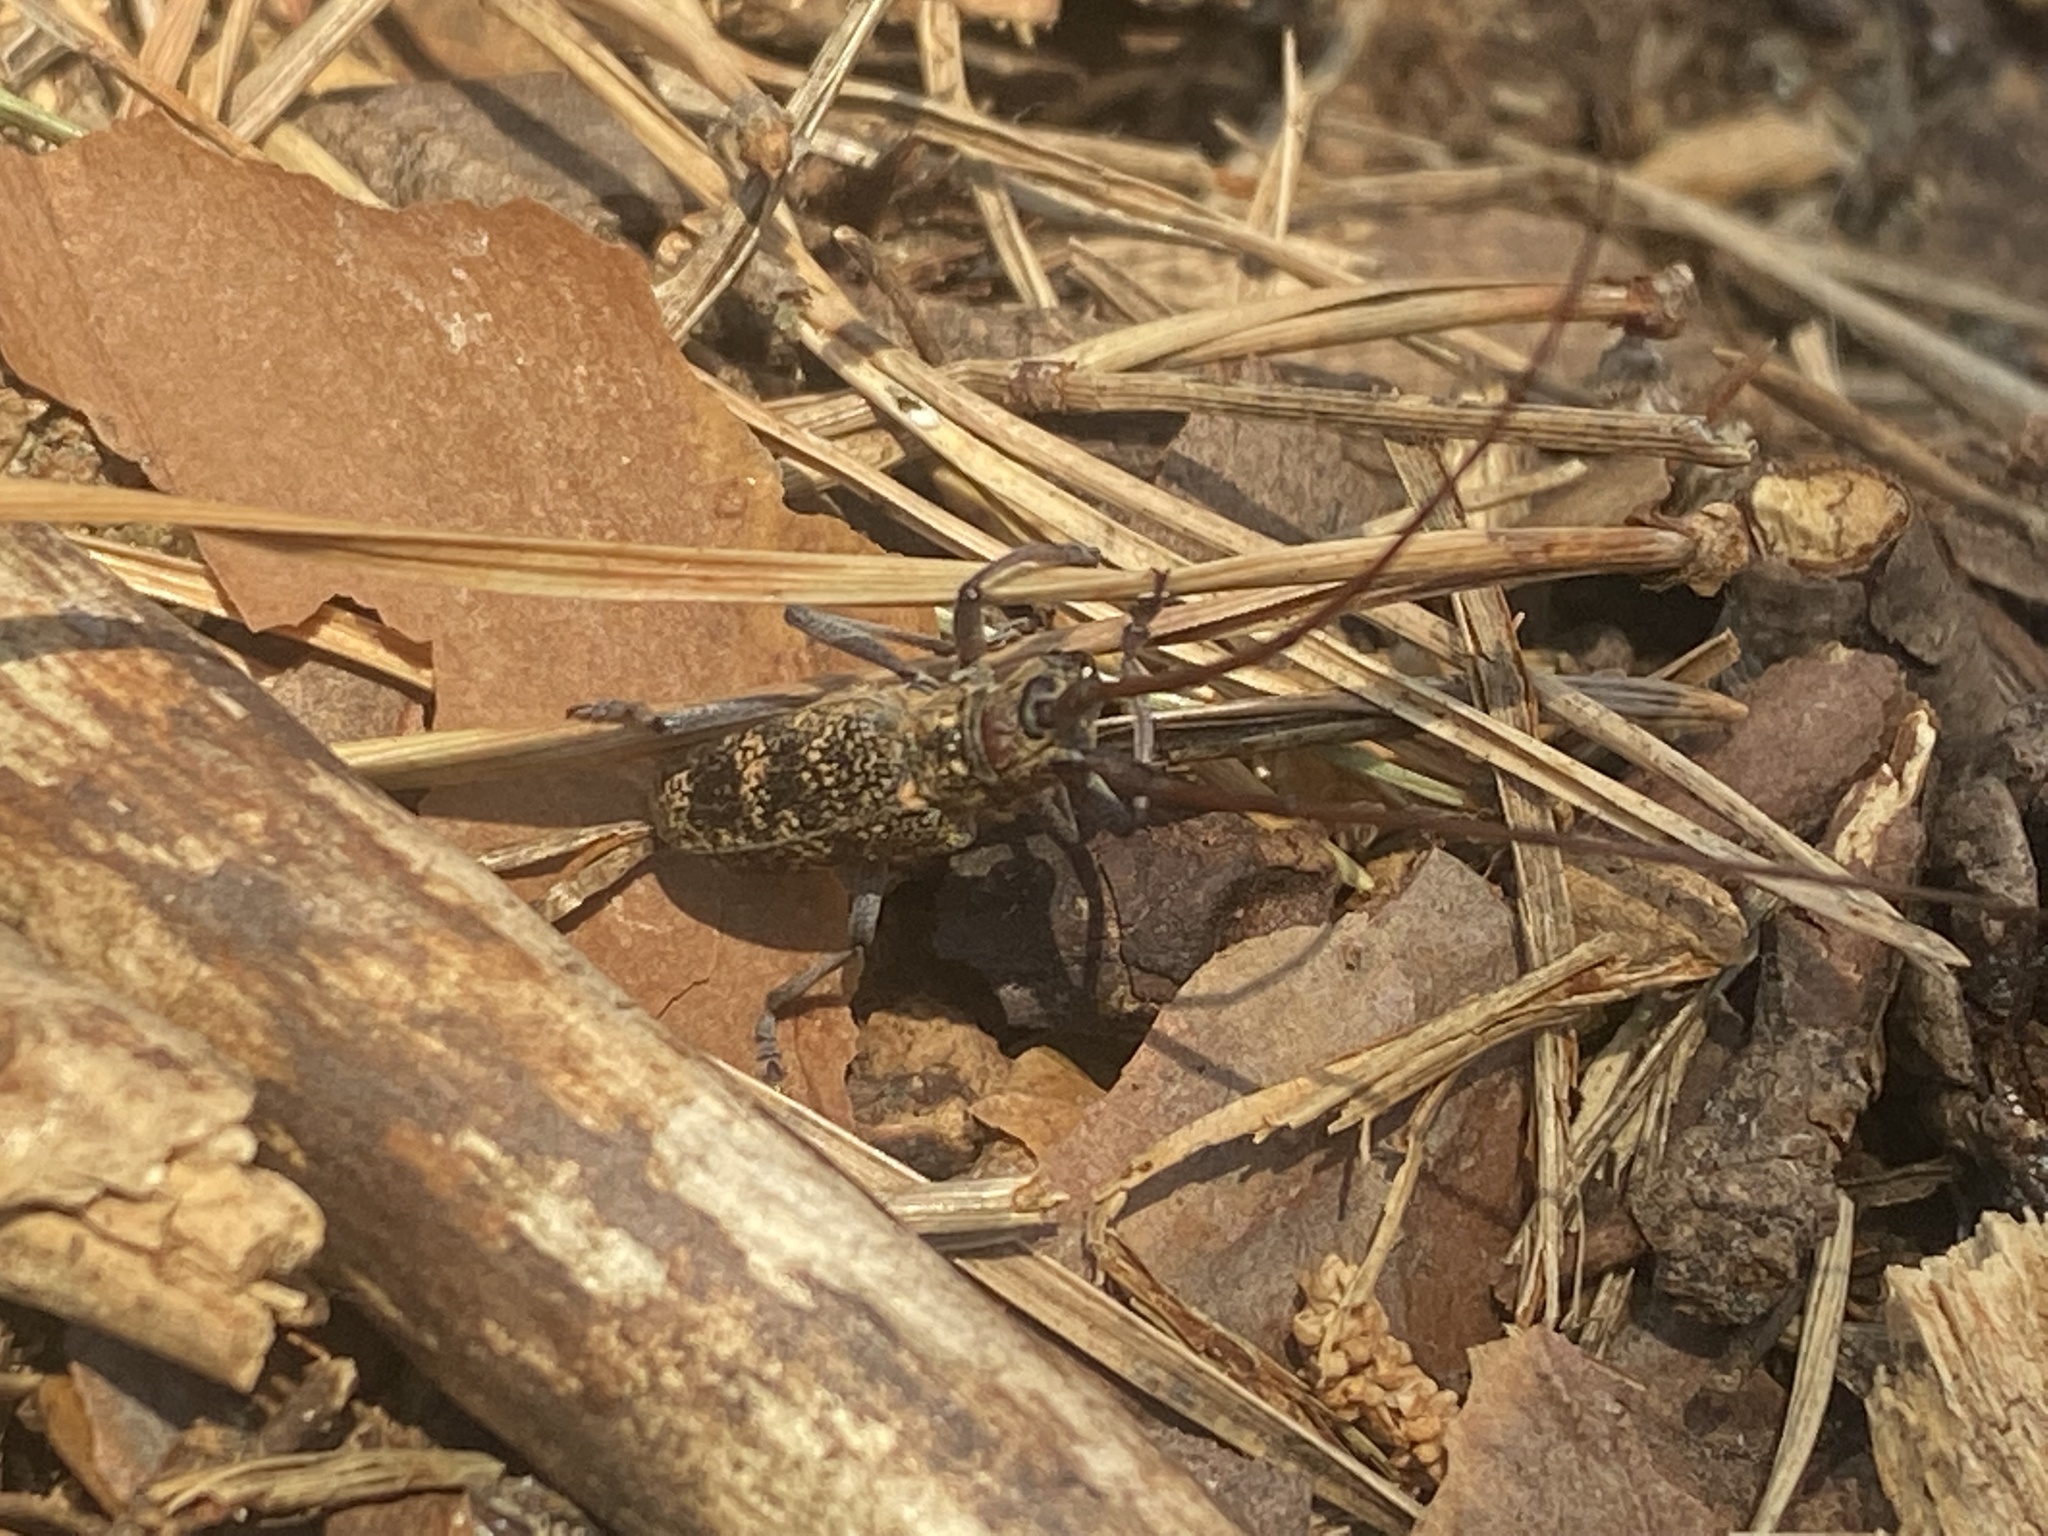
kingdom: Animalia
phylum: Arthropoda
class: Insecta
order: Coleoptera
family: Cerambycidae
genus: Monochamus
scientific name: Monochamus galloprovincialis
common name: Pine sawyer
